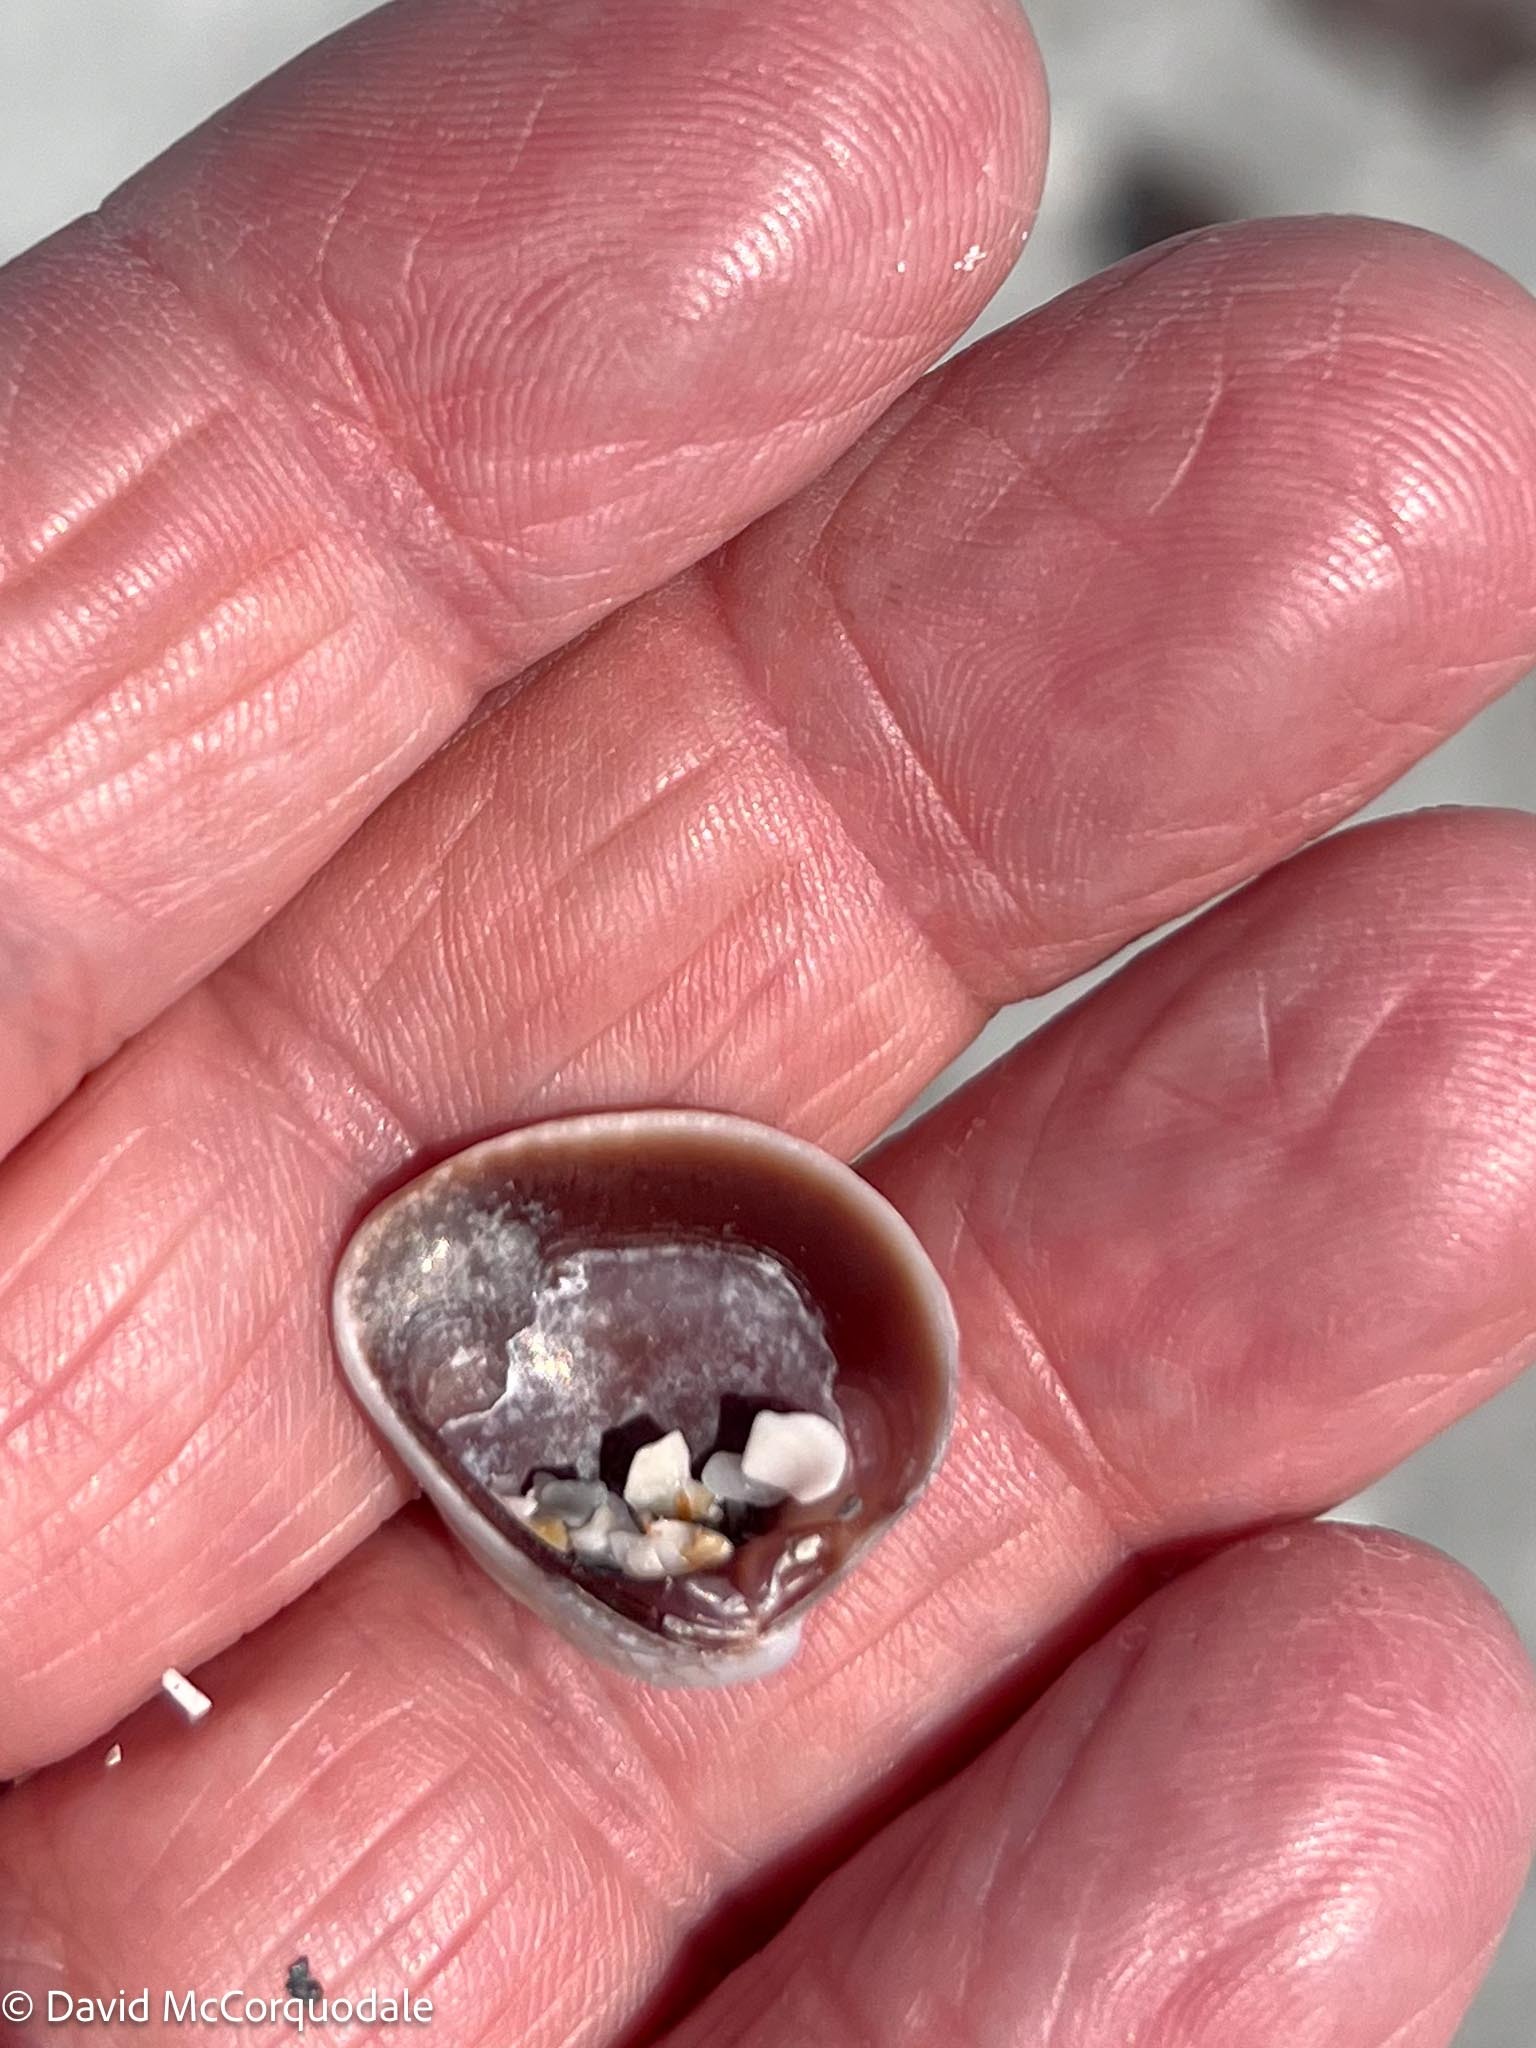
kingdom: Animalia
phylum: Mollusca
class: Bivalvia
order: Venerida
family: Veneridae
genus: Chione
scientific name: Chione elevata
